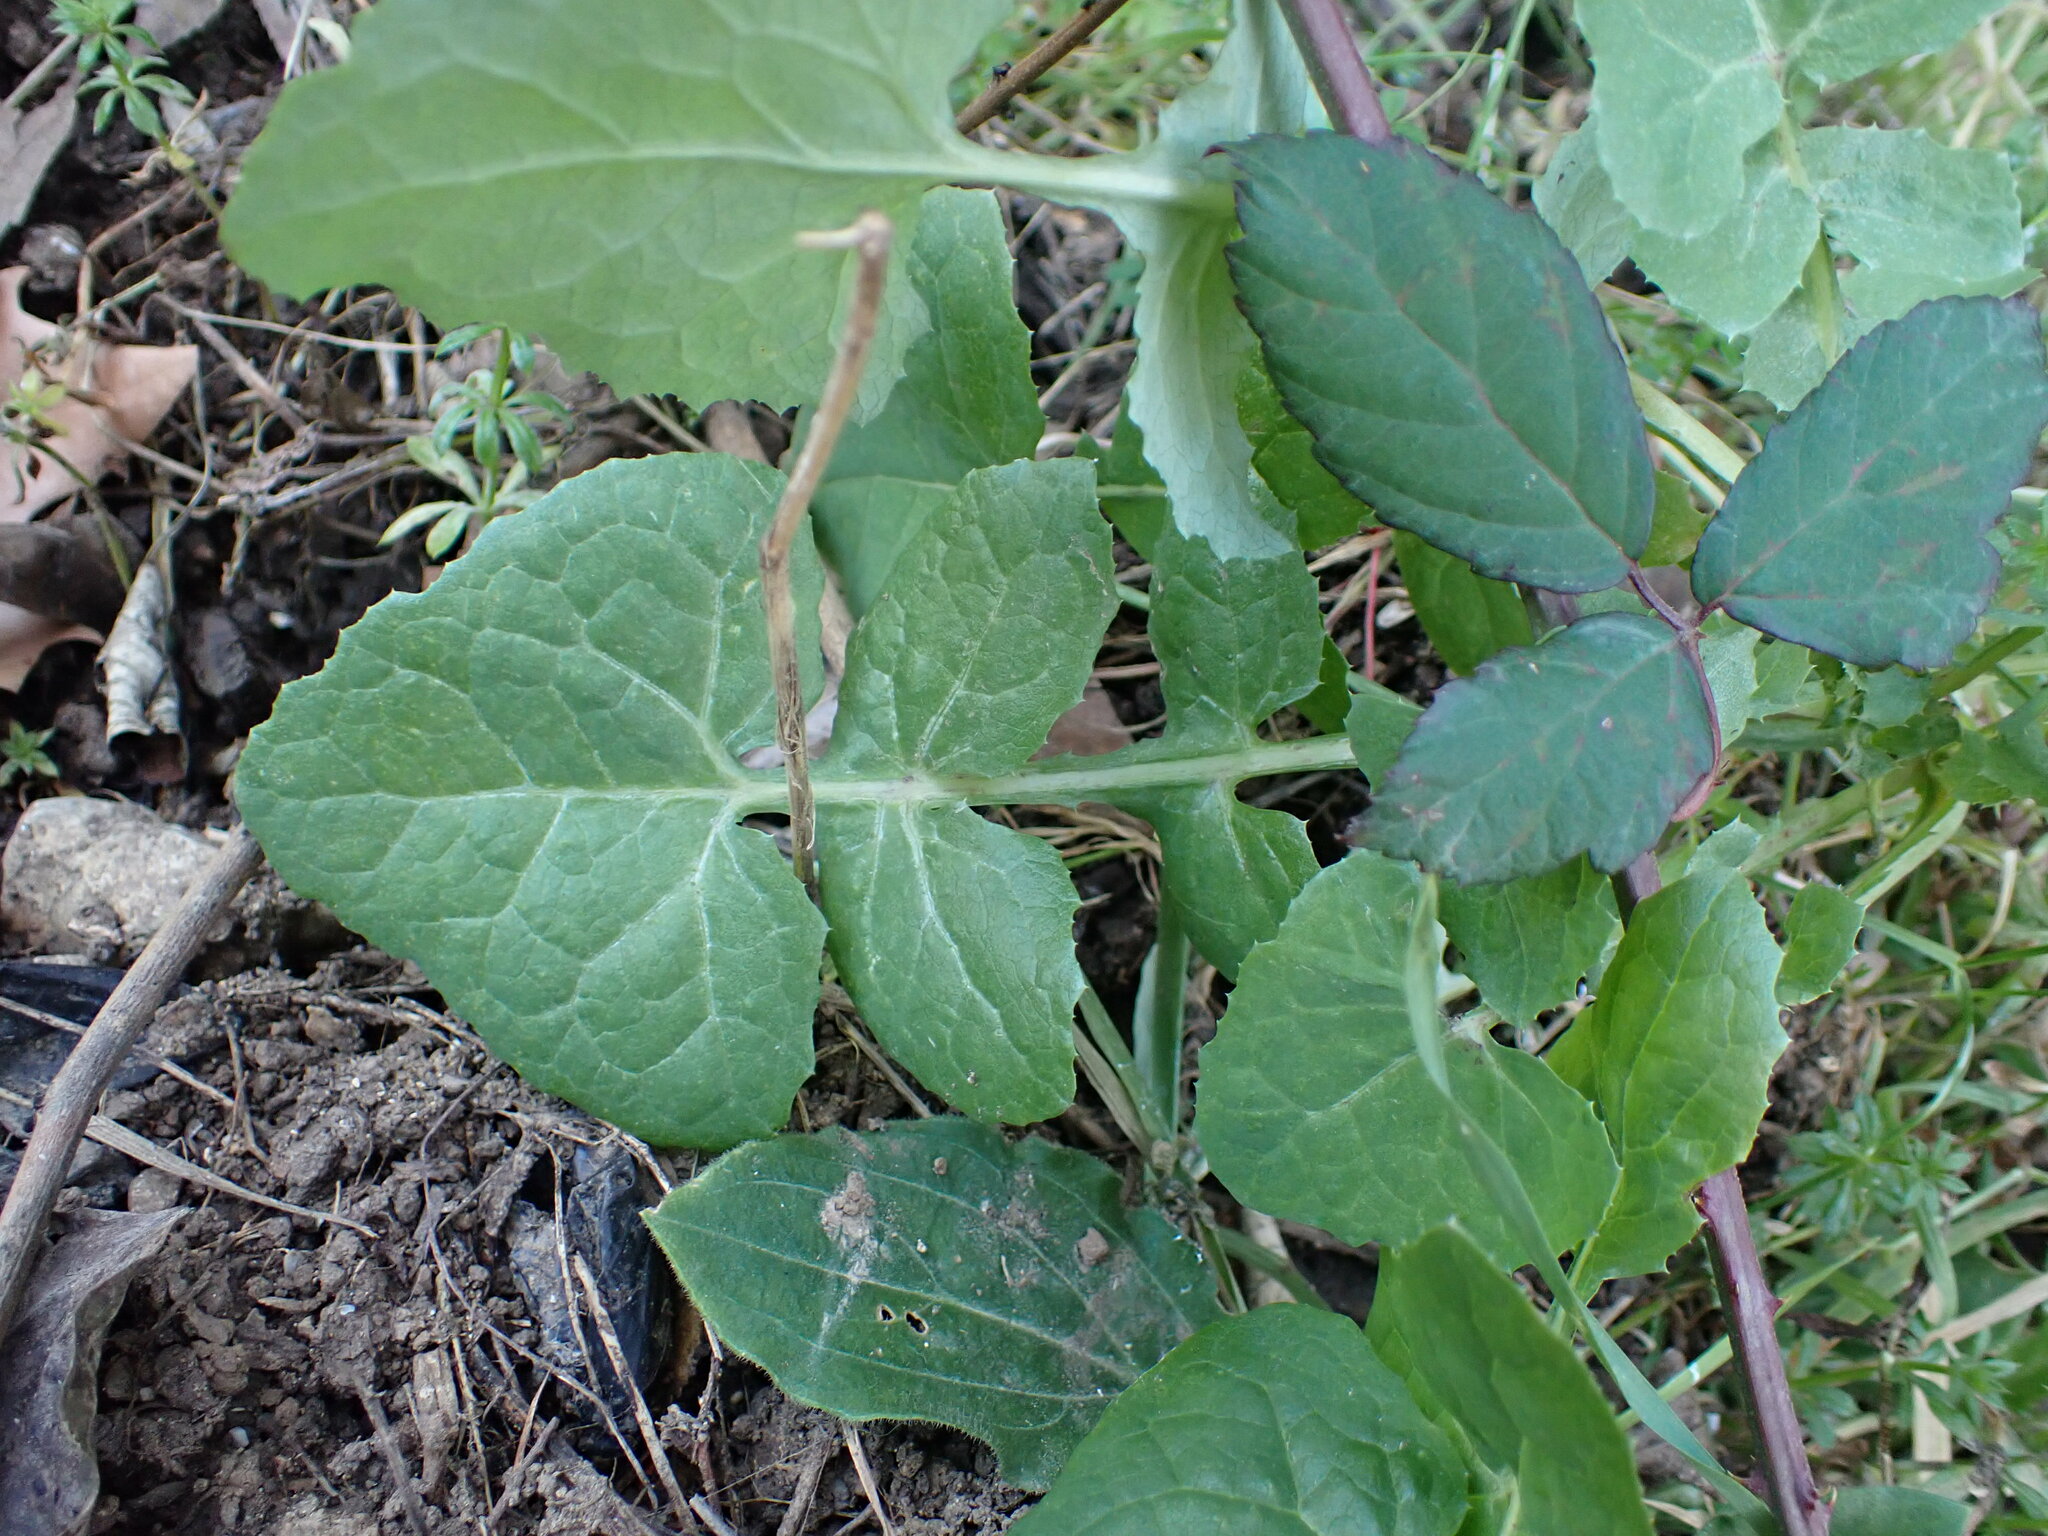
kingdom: Plantae
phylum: Tracheophyta
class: Magnoliopsida
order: Asterales
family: Asteraceae
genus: Sonchus
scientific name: Sonchus oleraceus
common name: Common sowthistle
